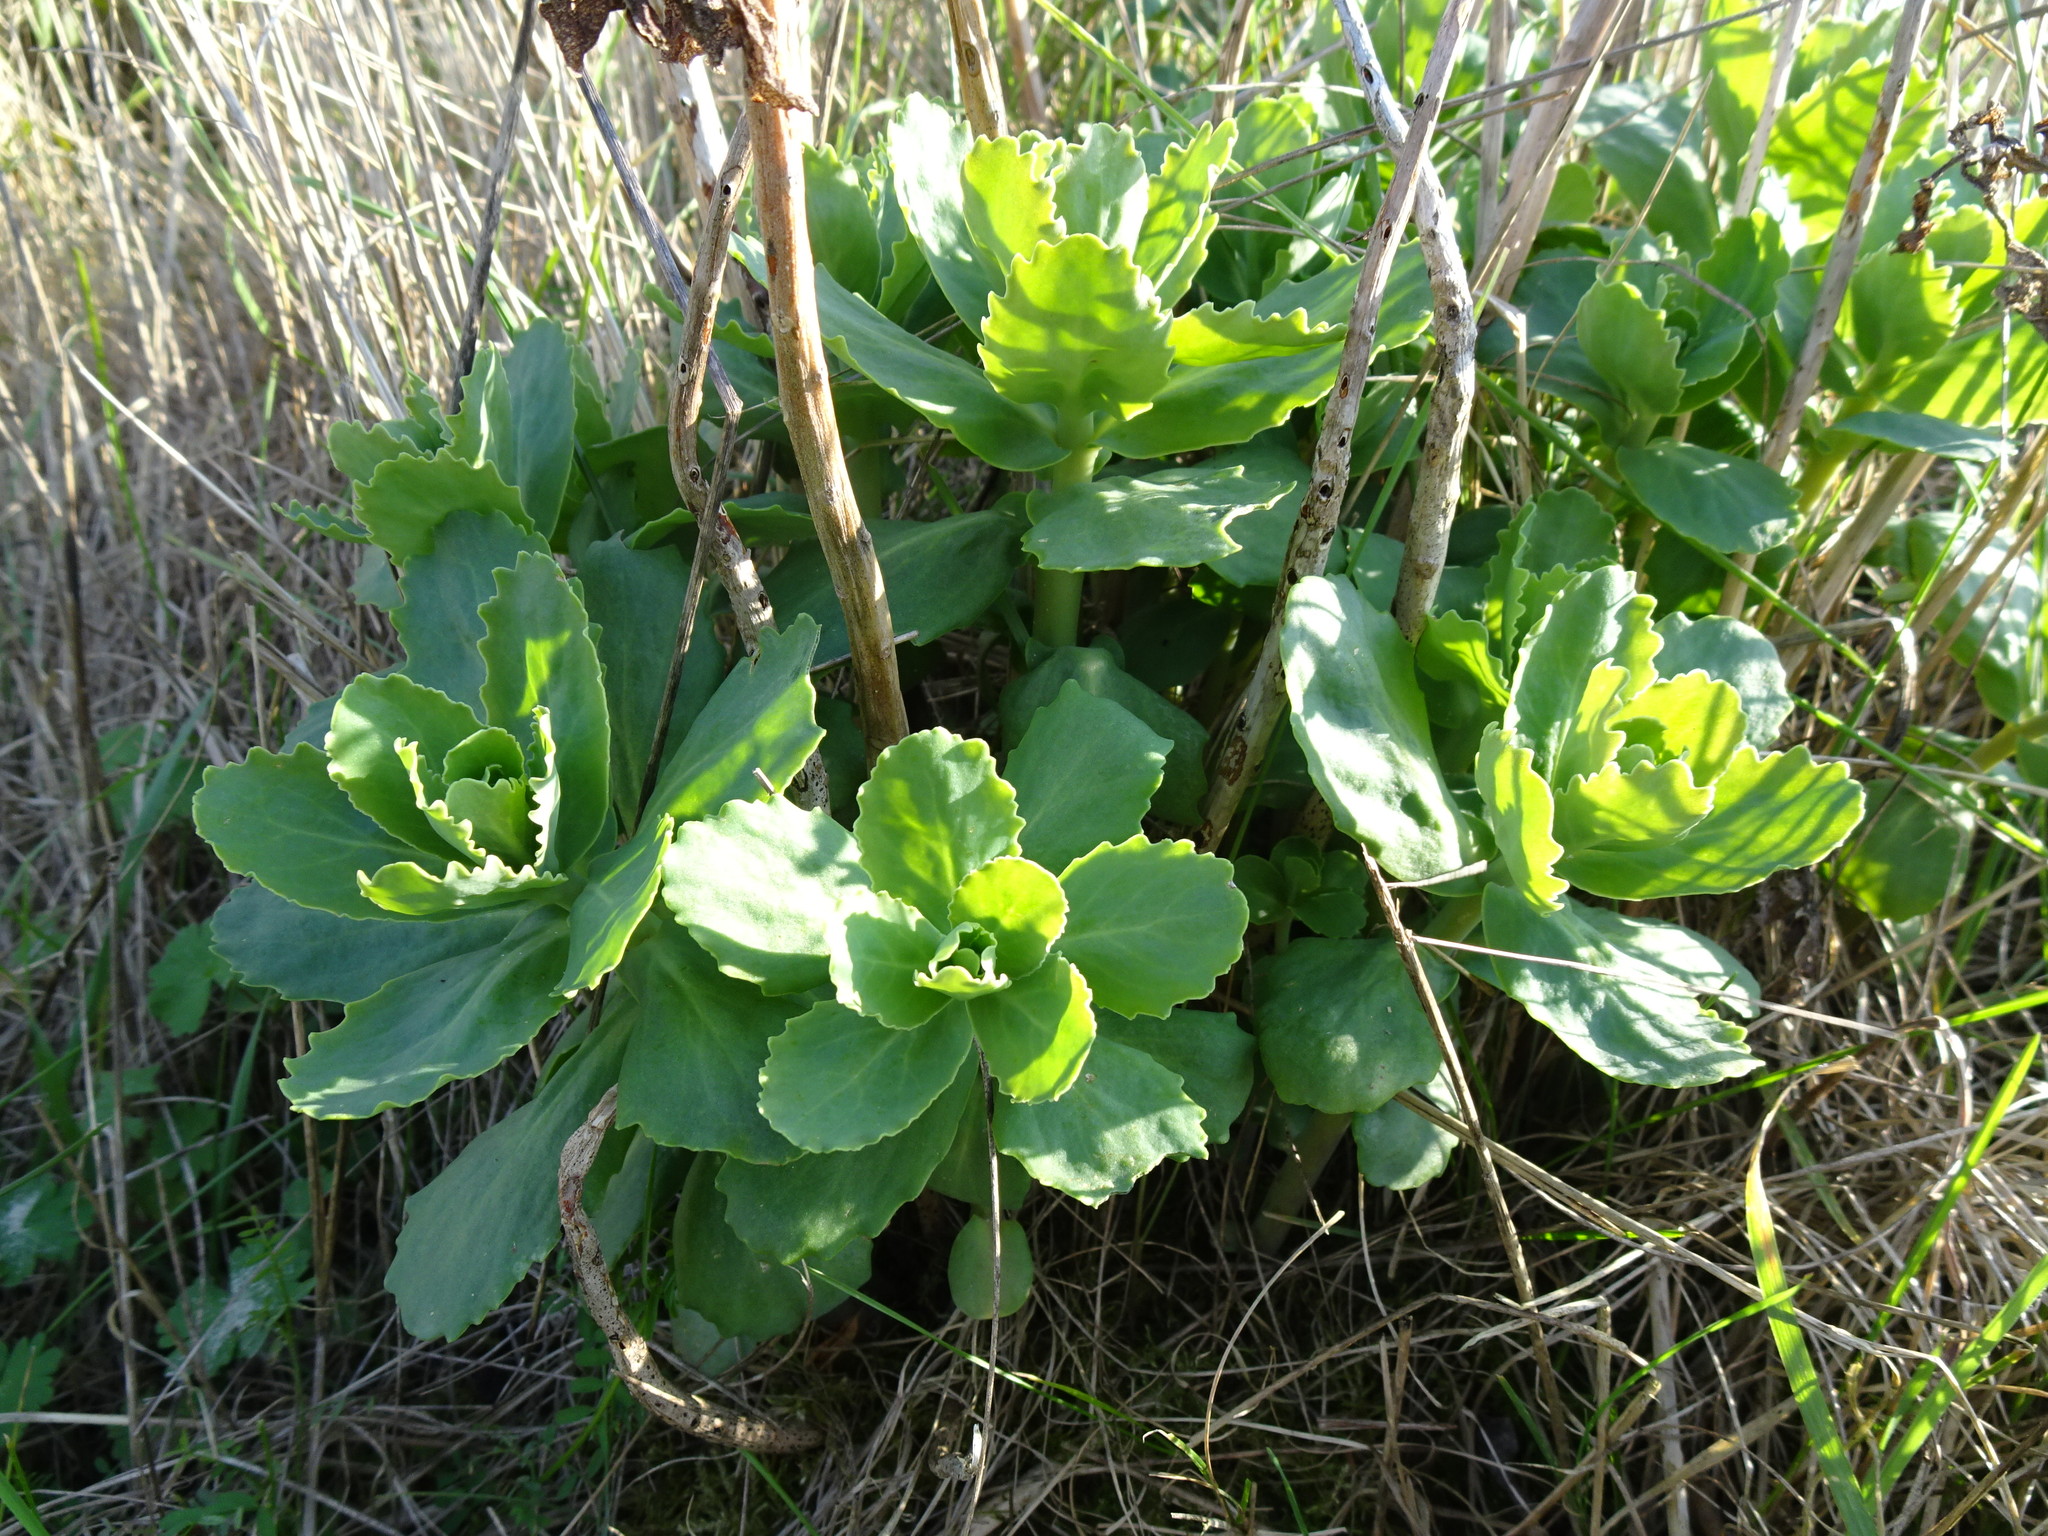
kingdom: Plantae
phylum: Tracheophyta
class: Magnoliopsida
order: Saxifragales
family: Crassulaceae
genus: Hylotelephium
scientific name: Hylotelephium maximum
